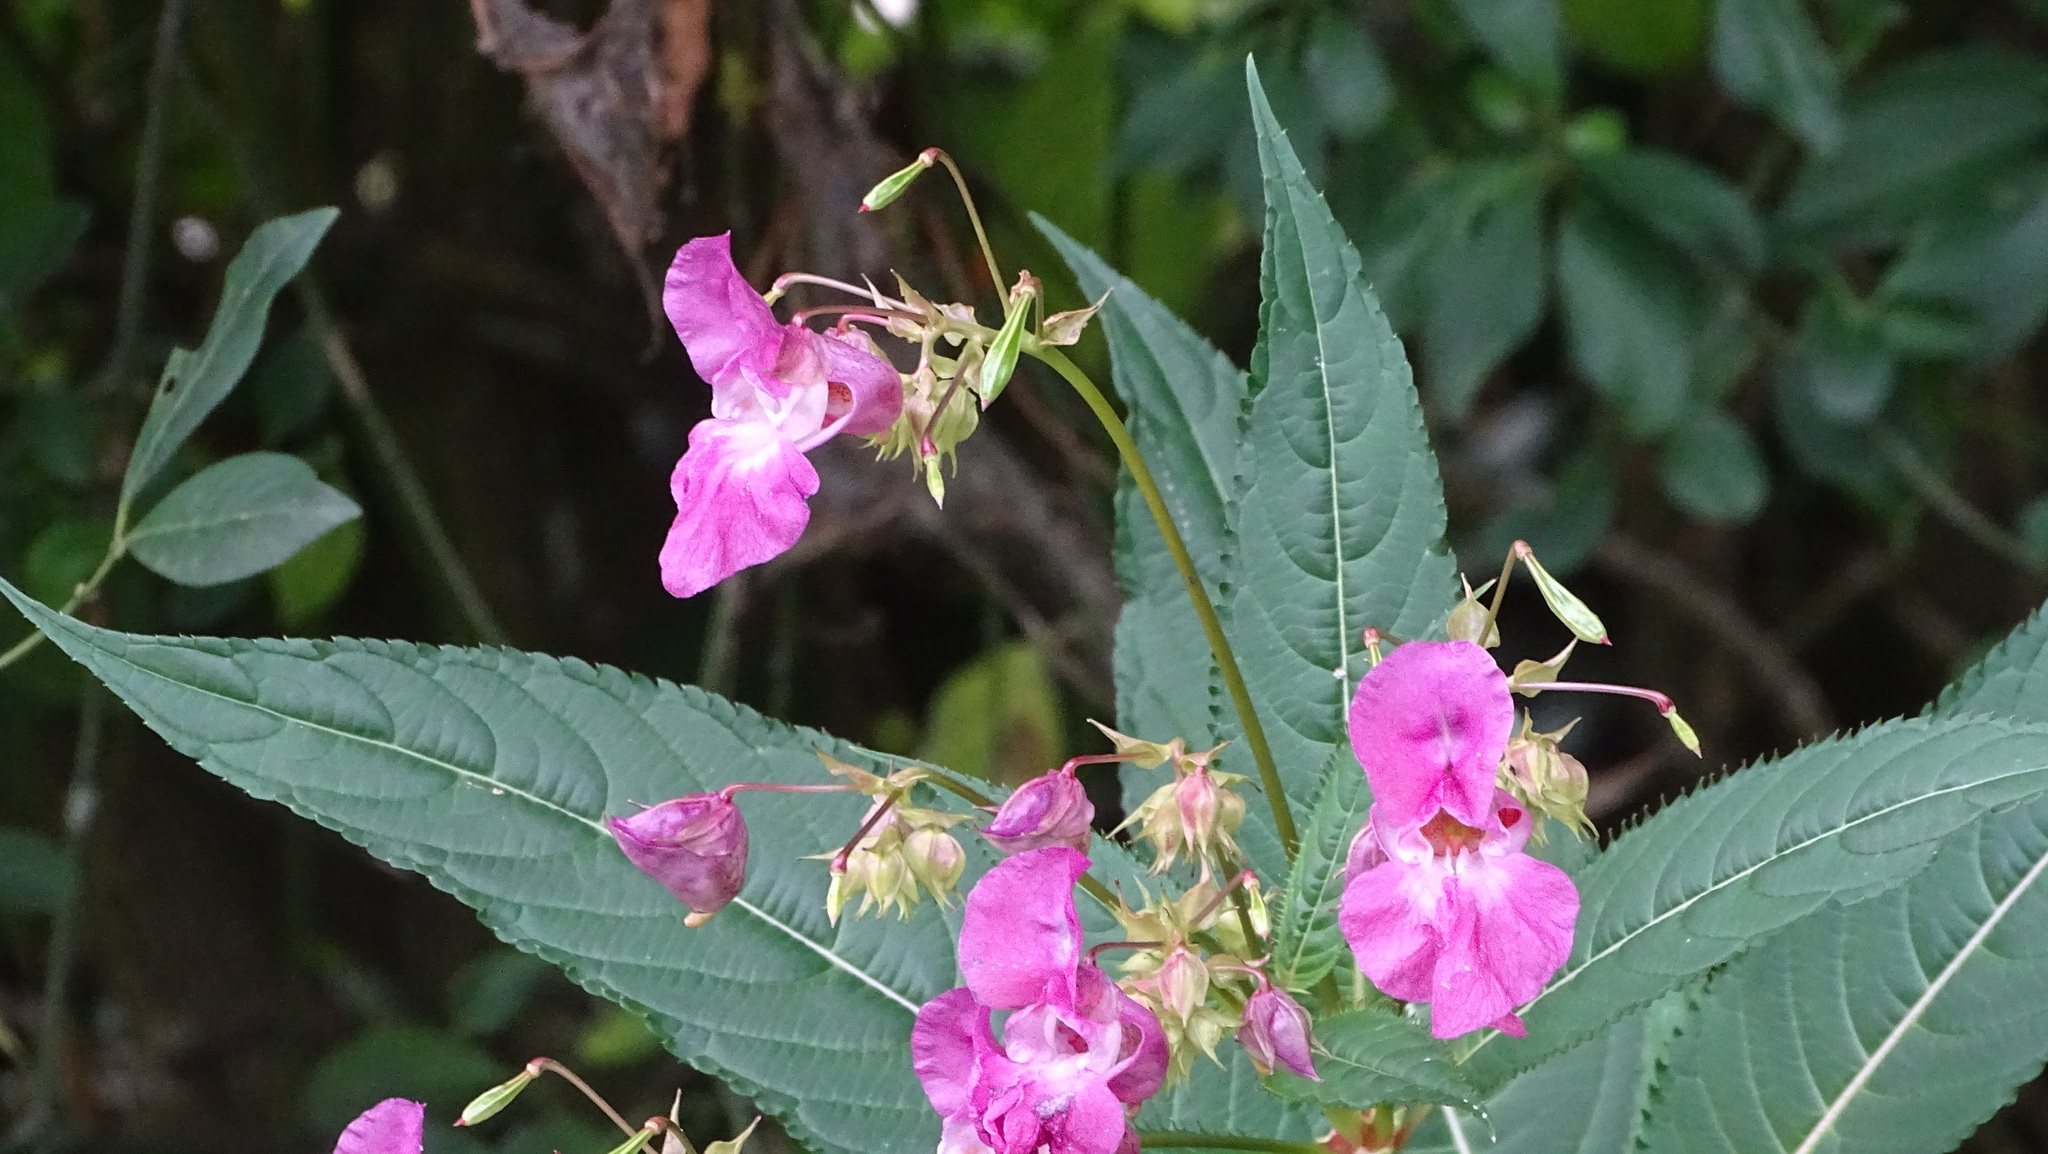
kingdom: Plantae
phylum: Tracheophyta
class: Magnoliopsida
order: Ericales
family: Balsaminaceae
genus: Impatiens
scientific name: Impatiens glandulifera
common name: Himalayan balsam
